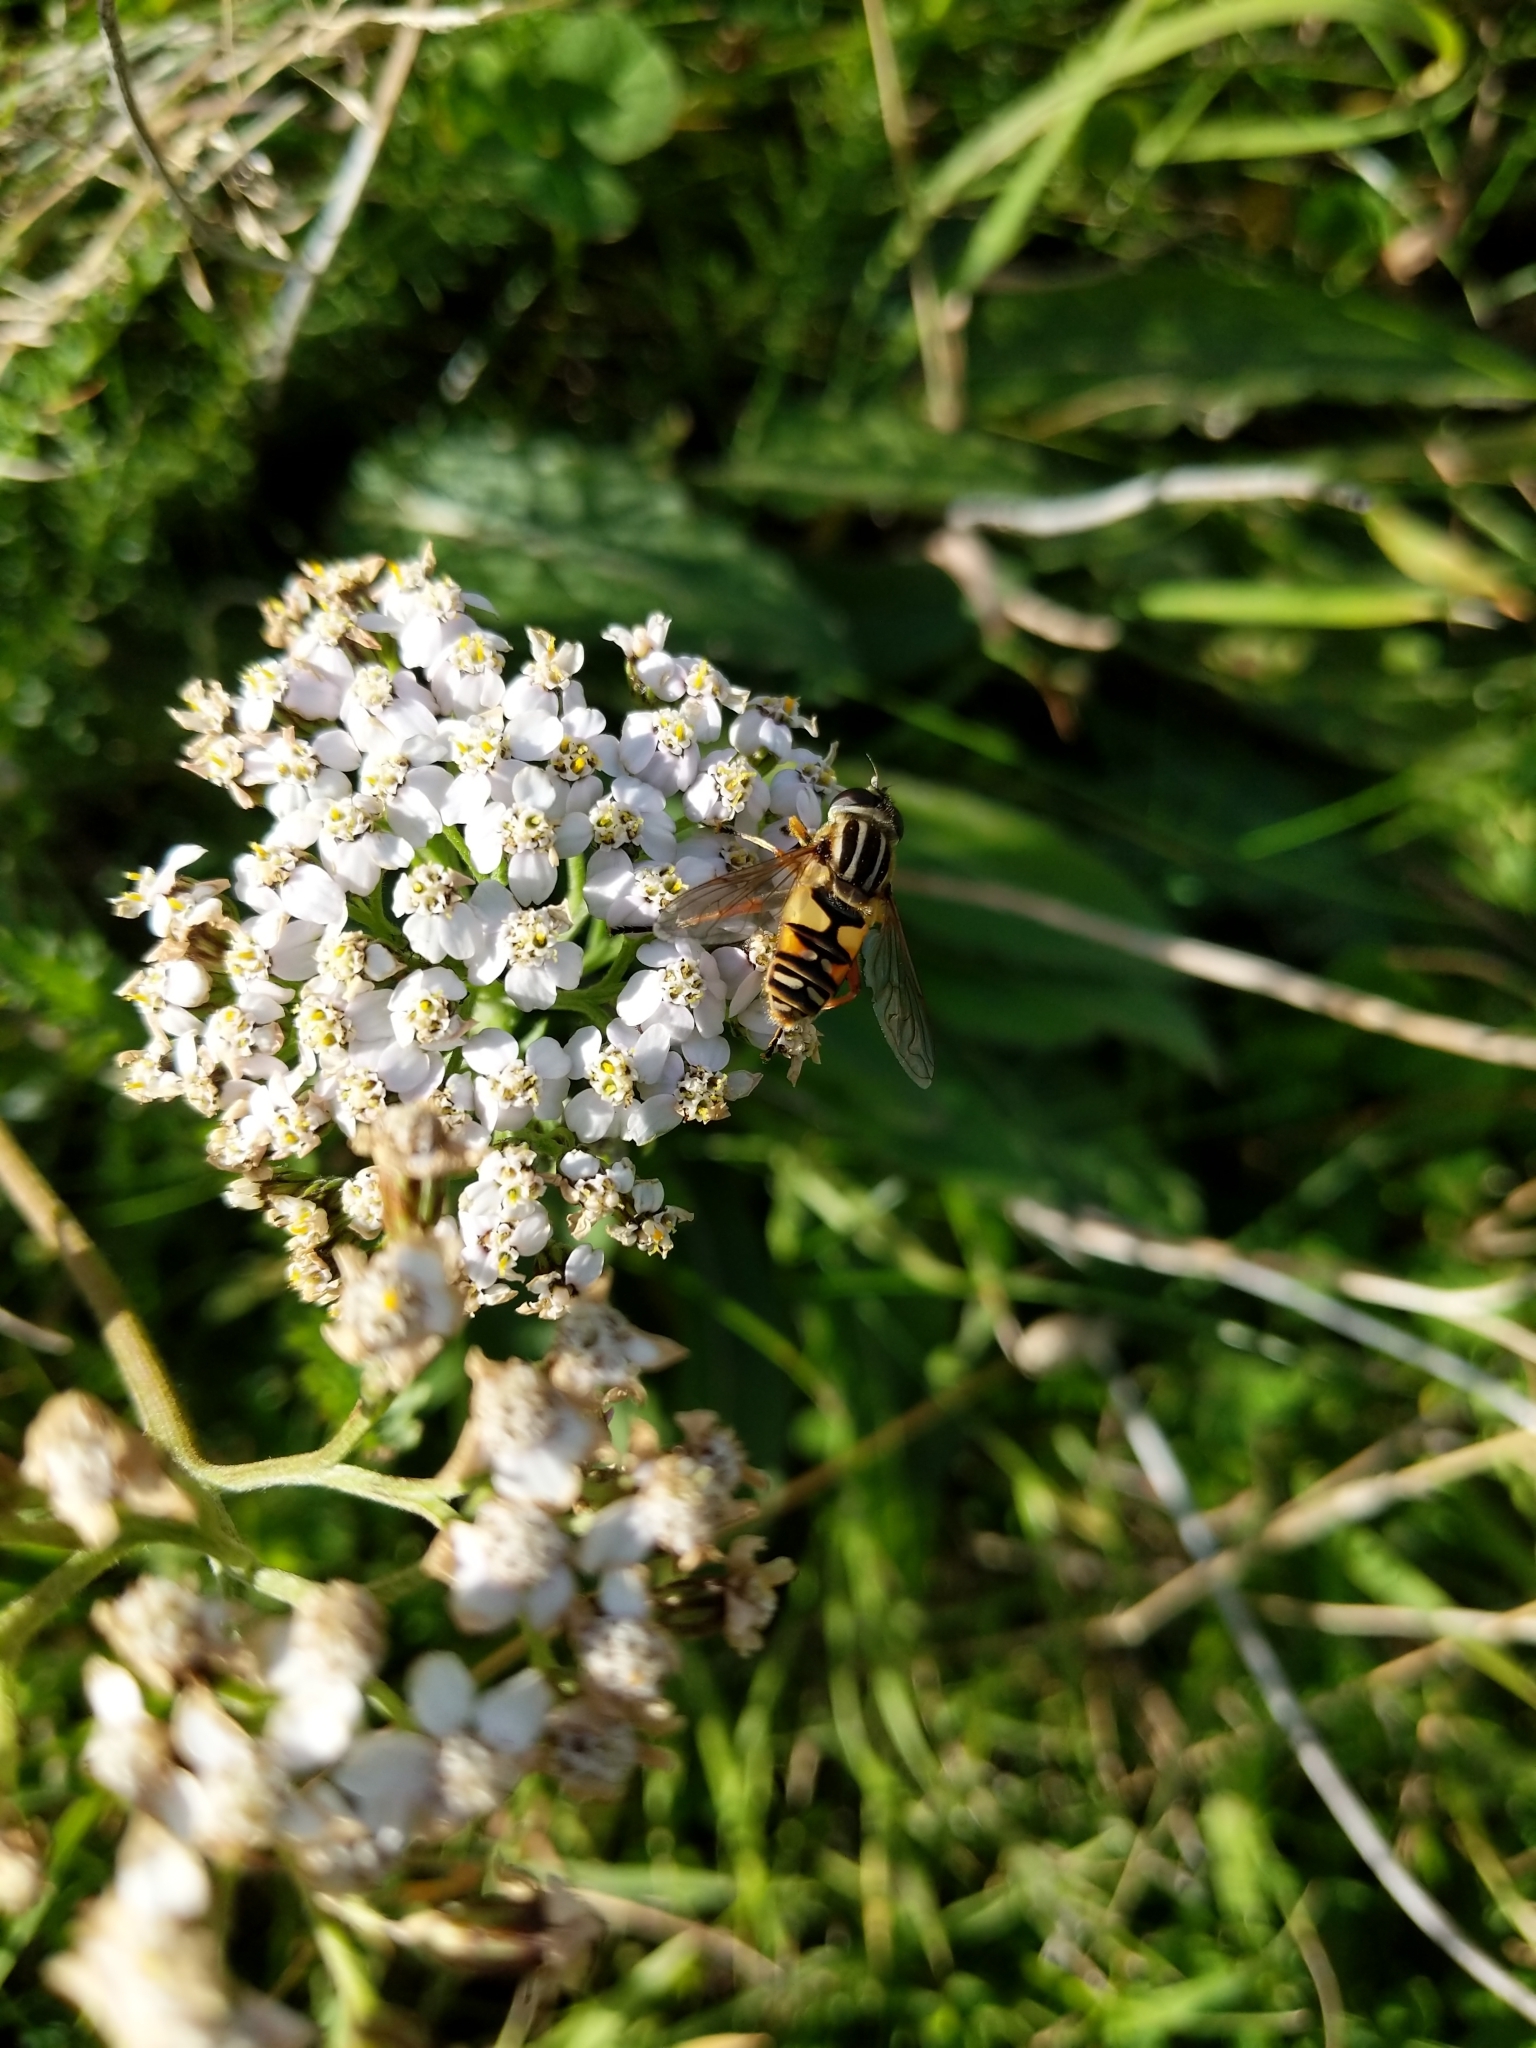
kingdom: Plantae
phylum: Tracheophyta
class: Magnoliopsida
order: Asterales
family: Asteraceae
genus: Achillea
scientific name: Achillea millefolium
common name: Yarrow
